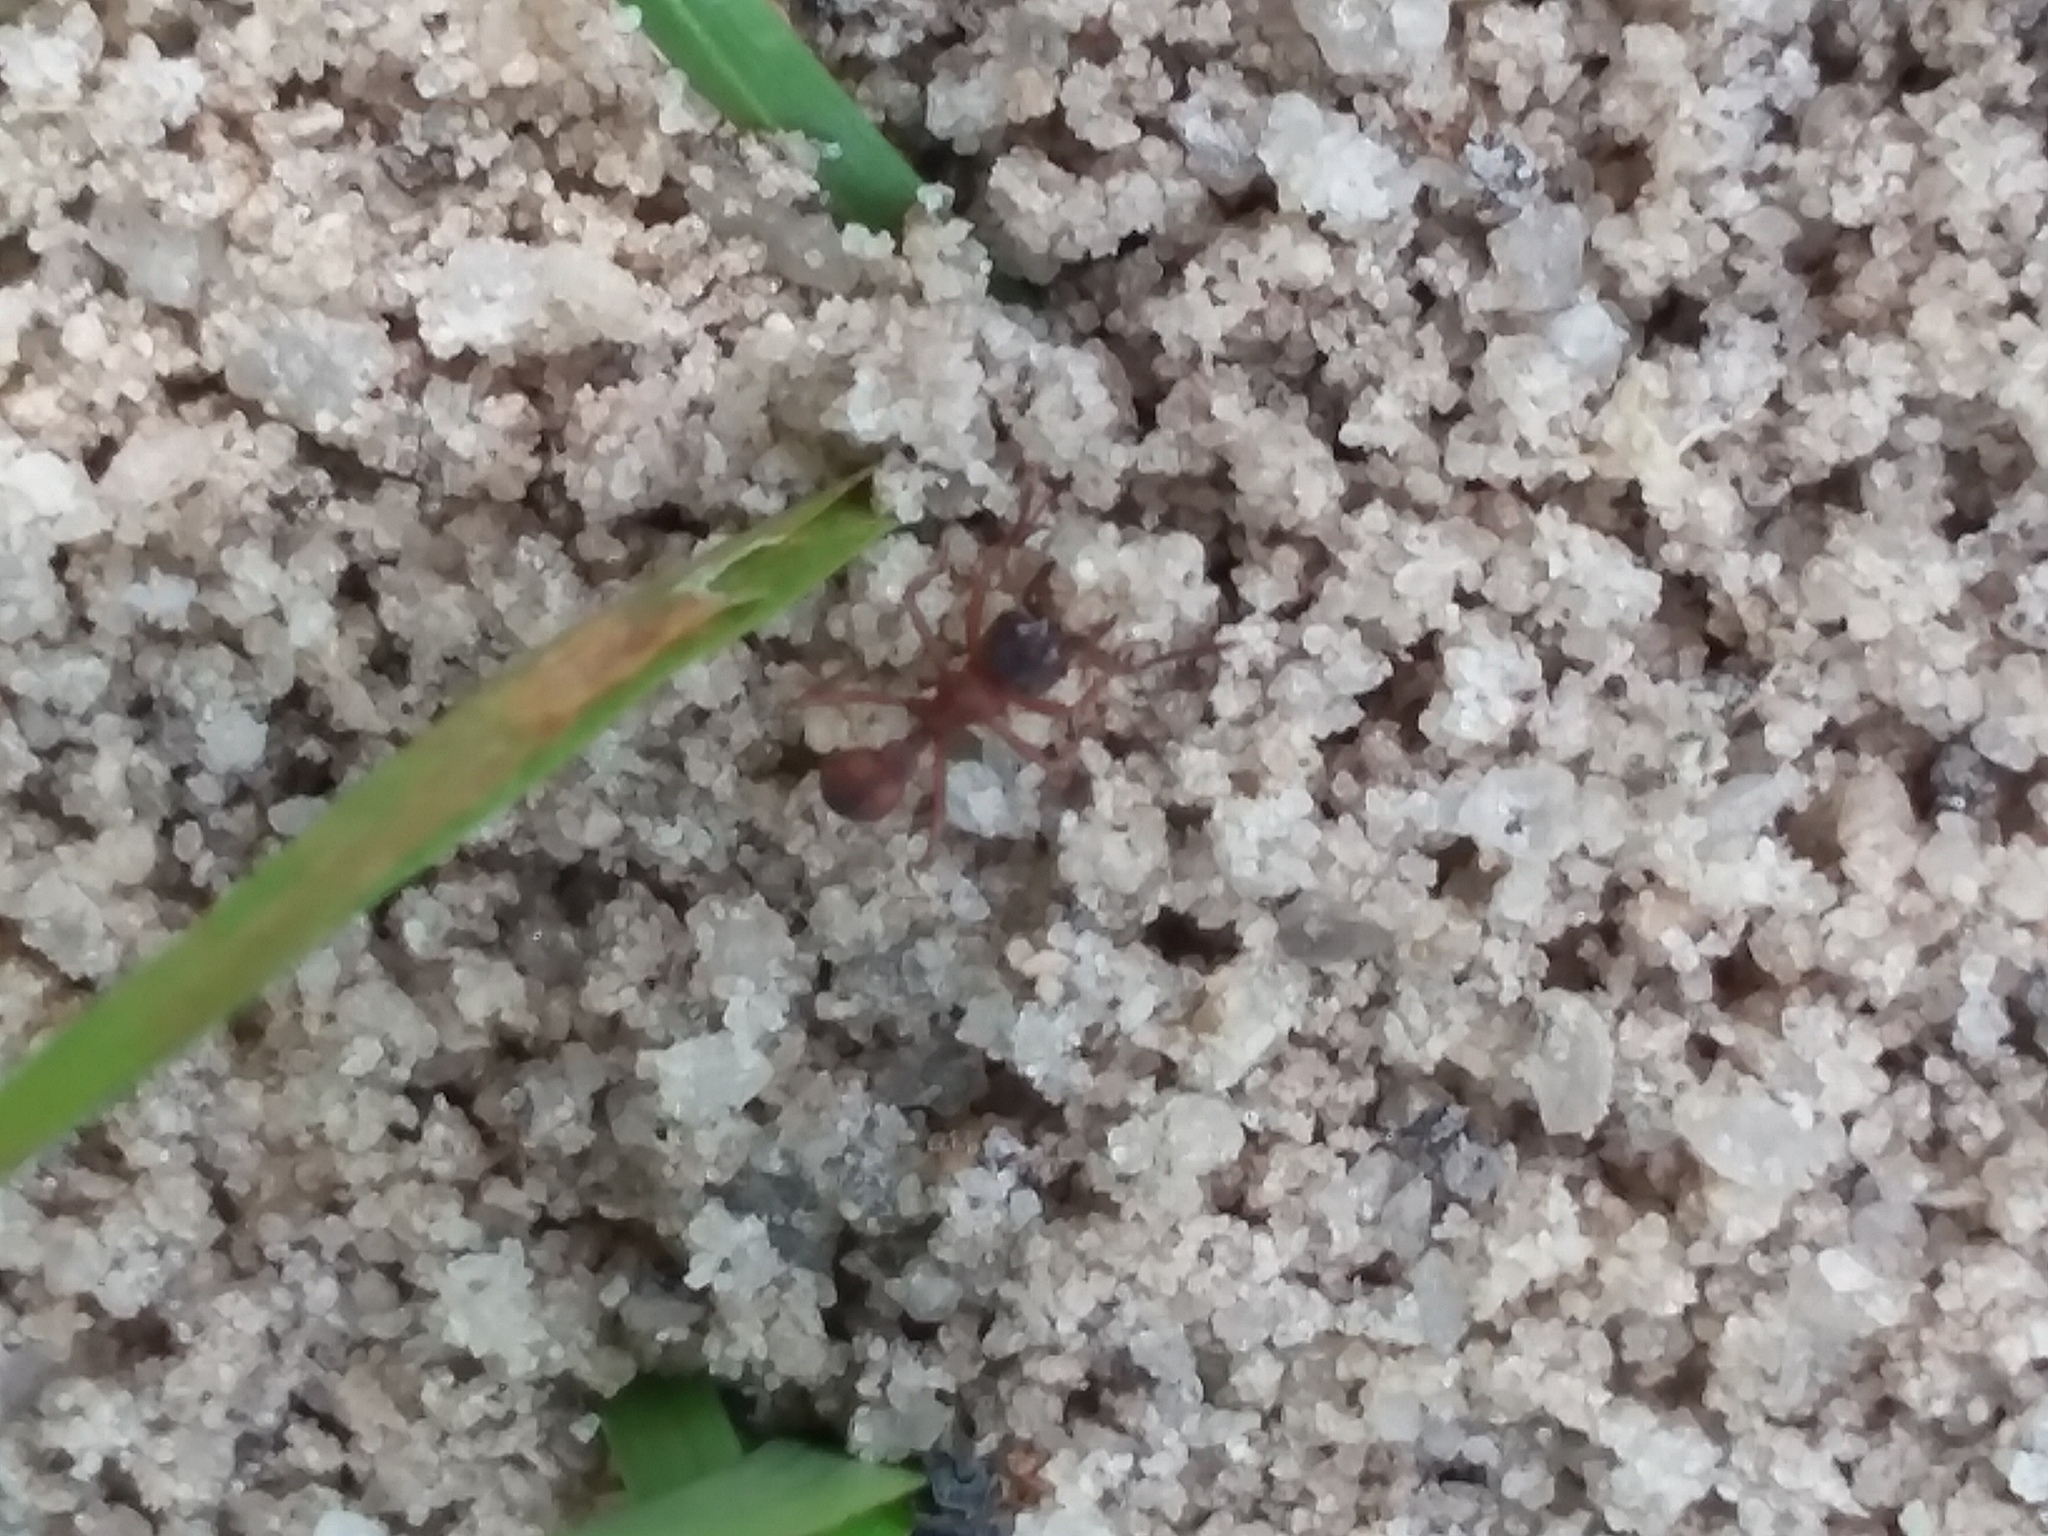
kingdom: Animalia
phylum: Arthropoda
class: Insecta
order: Hymenoptera
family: Formicidae
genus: Trachymyrmex
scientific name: Trachymyrmex septentrionalis
